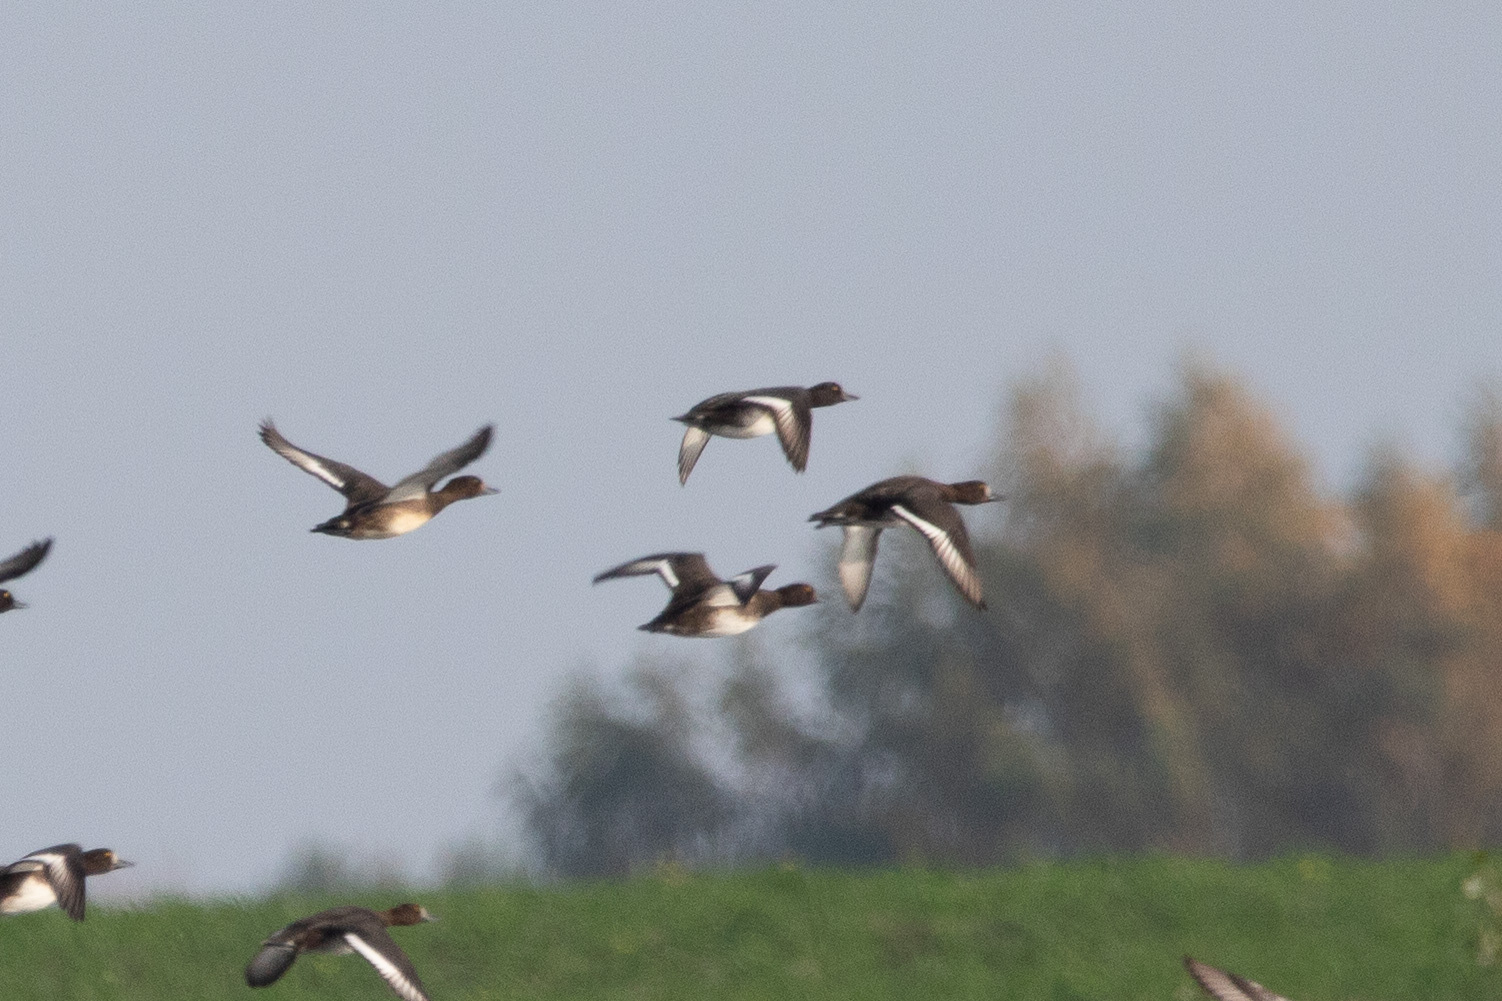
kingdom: Animalia
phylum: Chordata
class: Aves
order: Anseriformes
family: Anatidae
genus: Aythya
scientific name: Aythya fuligula
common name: Tufted duck
